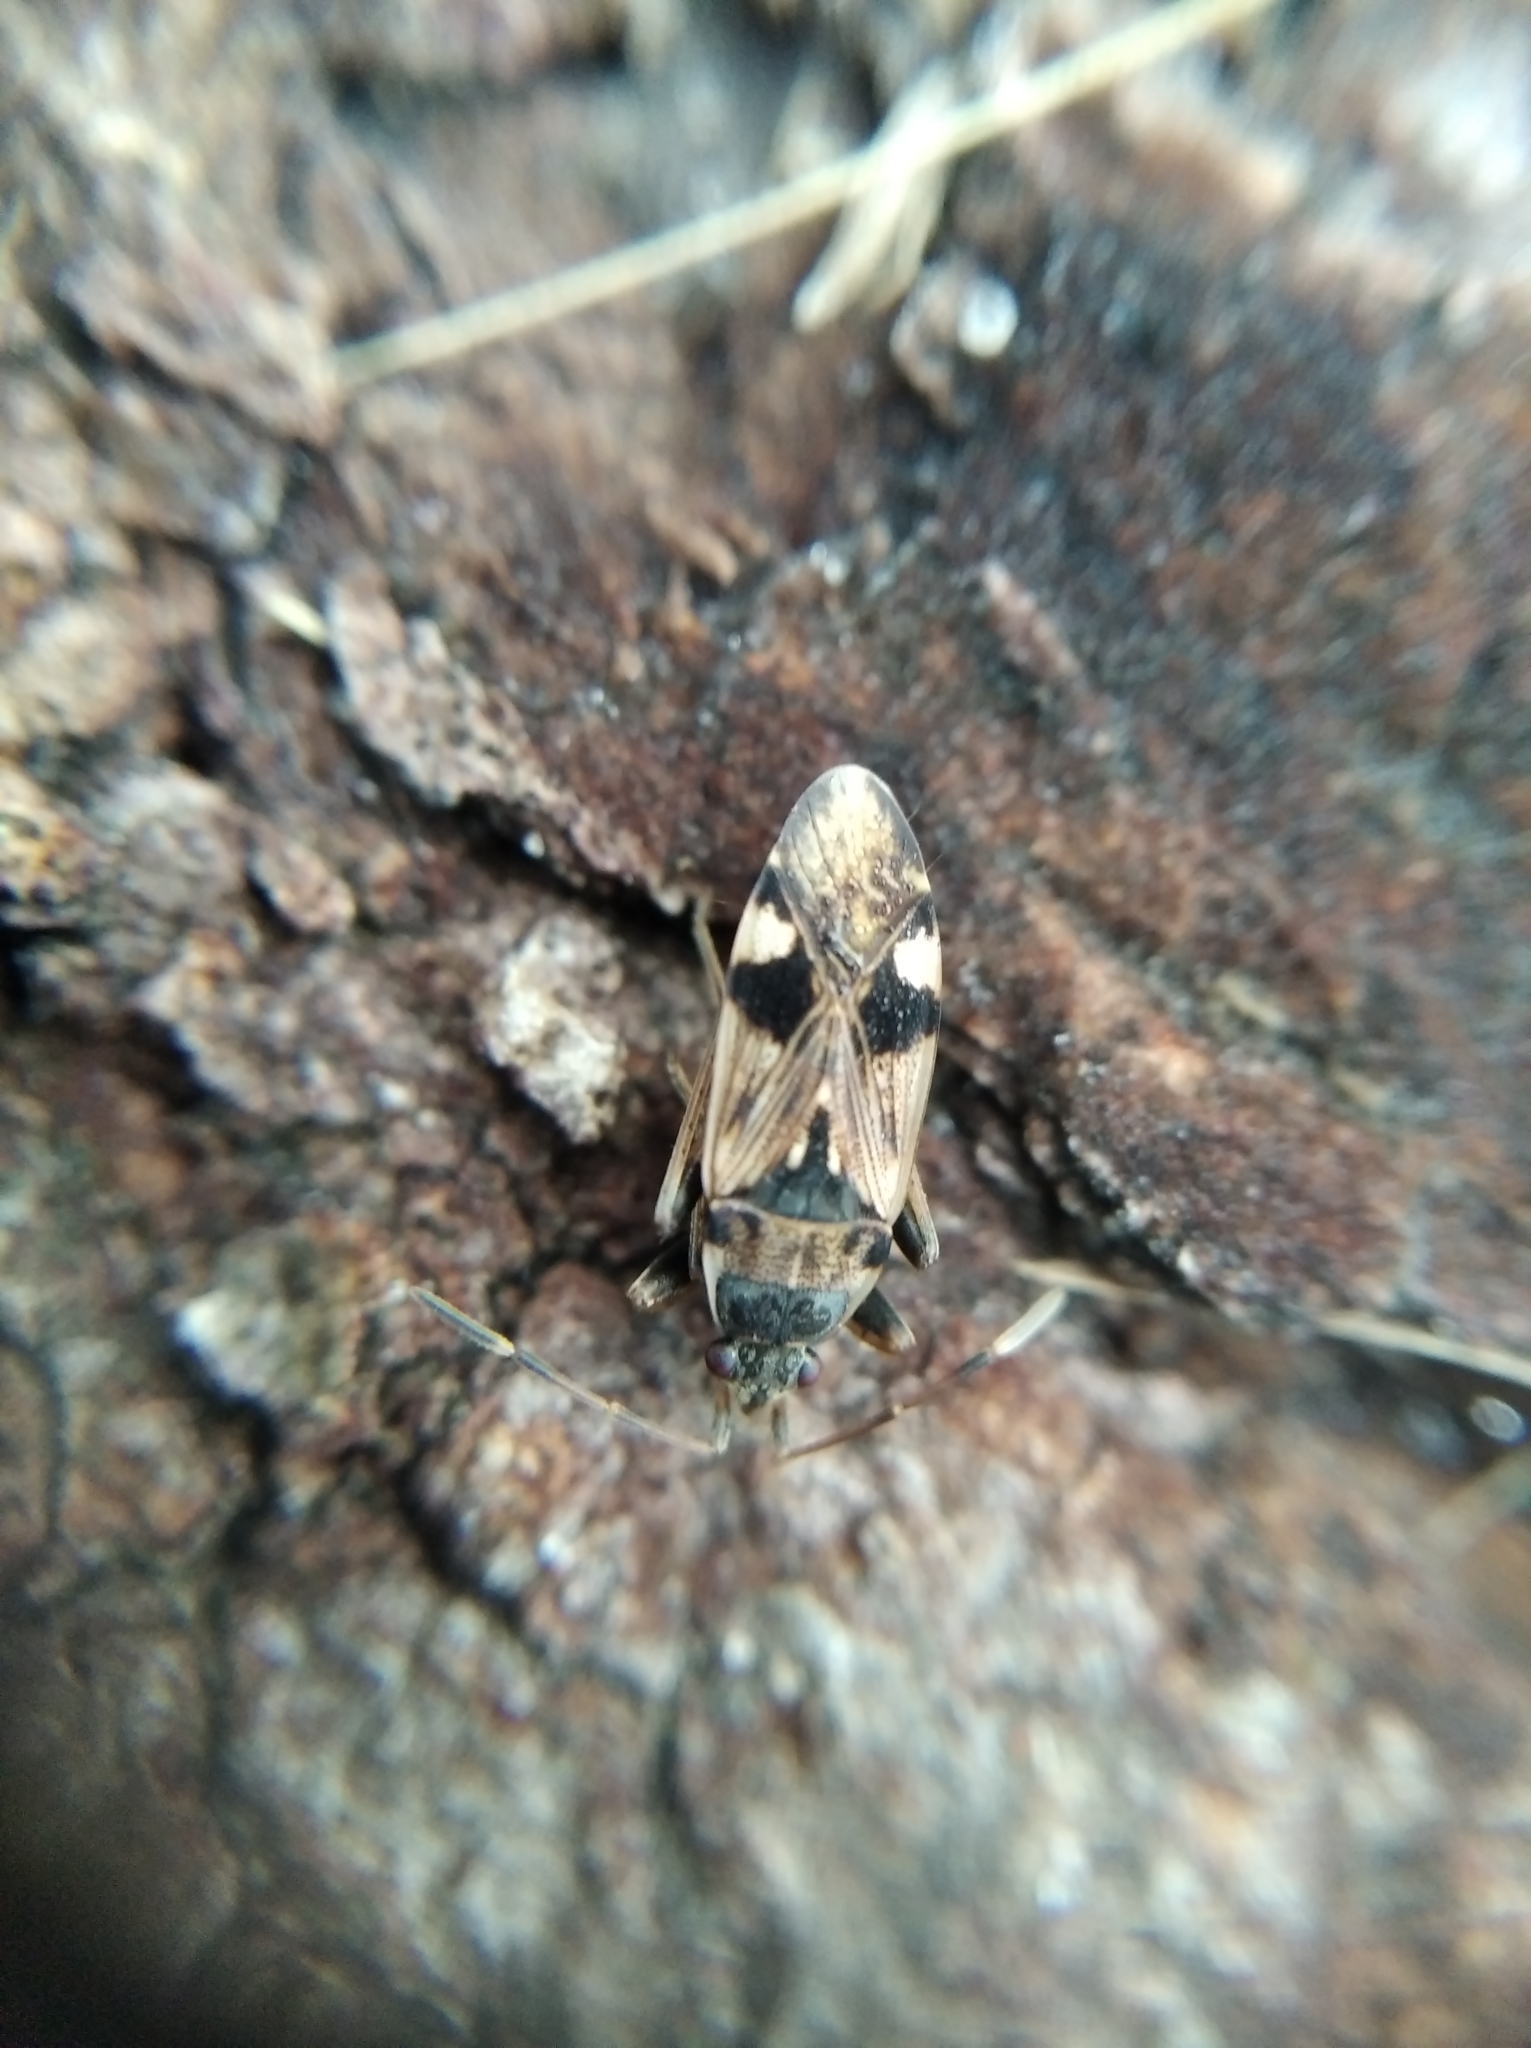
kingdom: Animalia
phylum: Arthropoda
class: Insecta
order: Hemiptera
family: Rhyparochromidae
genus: Beosus
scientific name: Beosus maritimus
